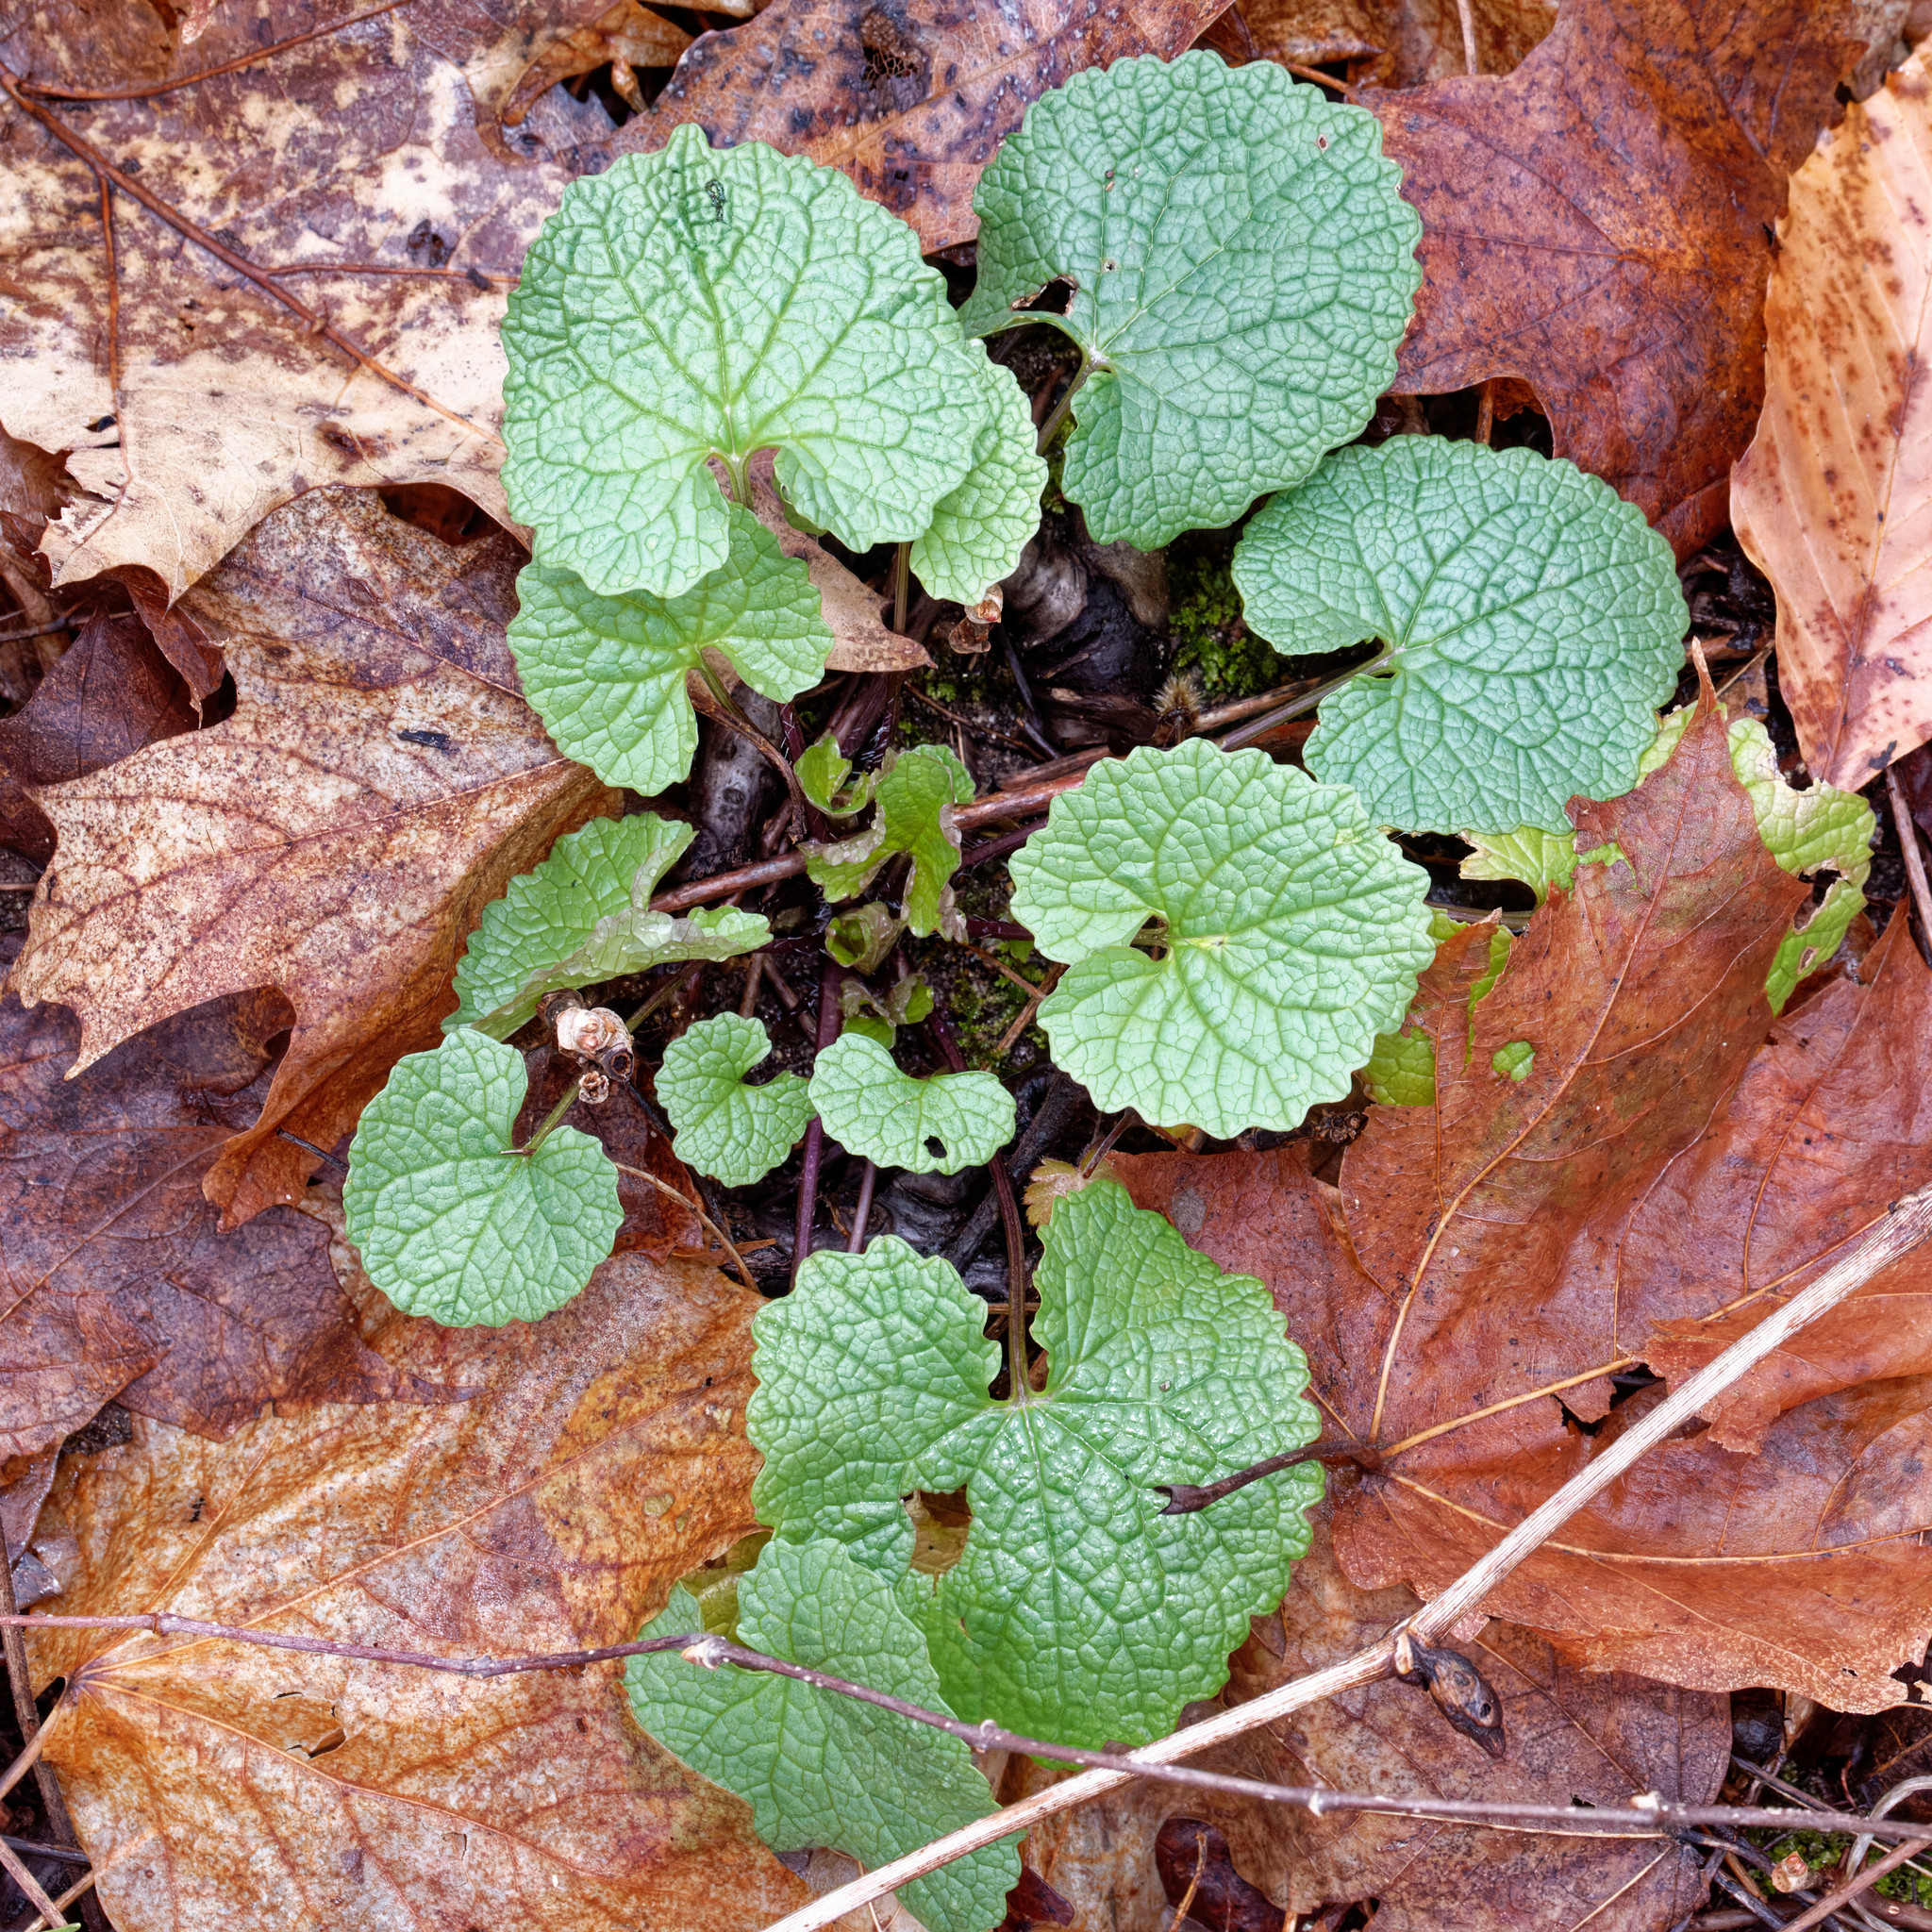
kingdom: Plantae
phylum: Tracheophyta
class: Magnoliopsida
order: Brassicales
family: Brassicaceae
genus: Alliaria
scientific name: Alliaria petiolata
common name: Garlic mustard
